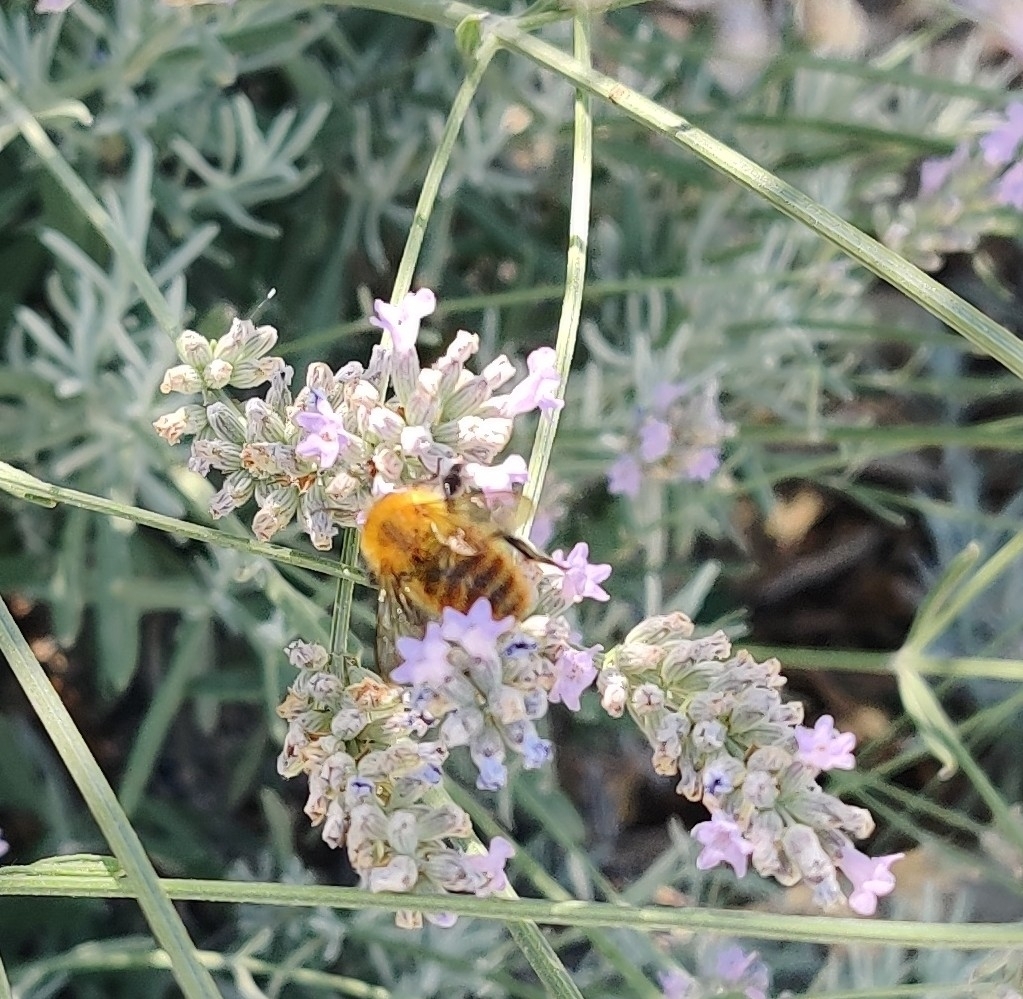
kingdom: Animalia
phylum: Arthropoda
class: Insecta
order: Hymenoptera
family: Apidae
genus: Bombus
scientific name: Bombus pascuorum
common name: Common carder bee
